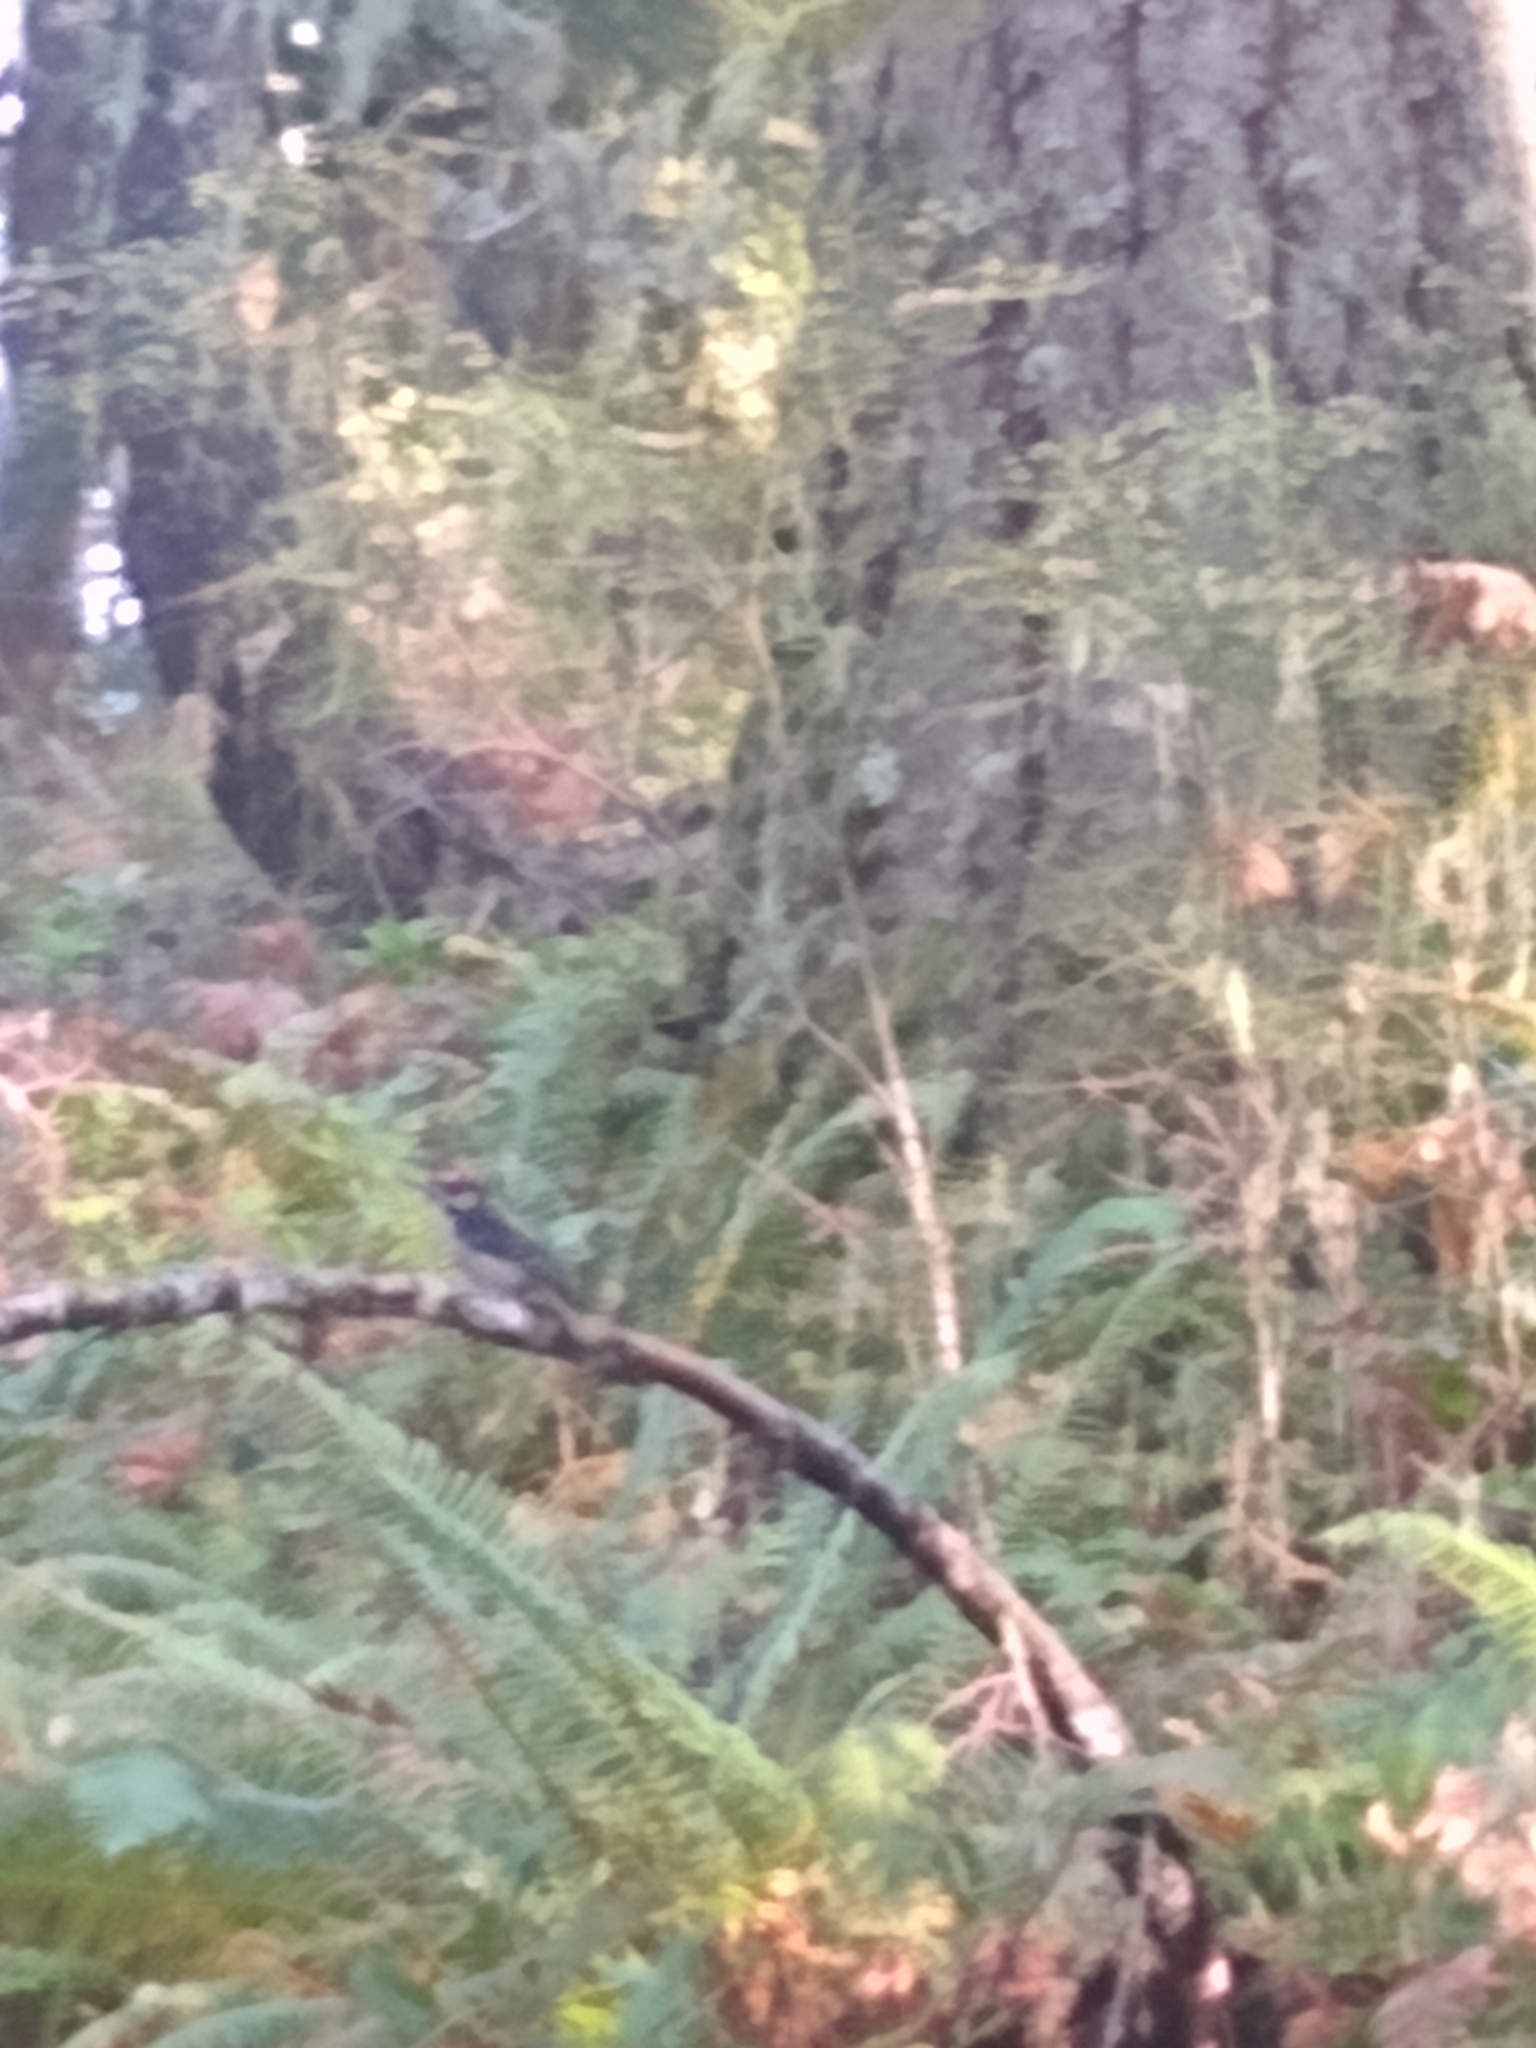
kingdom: Animalia
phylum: Chordata
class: Aves
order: Piciformes
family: Picidae
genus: Dryobates
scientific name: Dryobates
